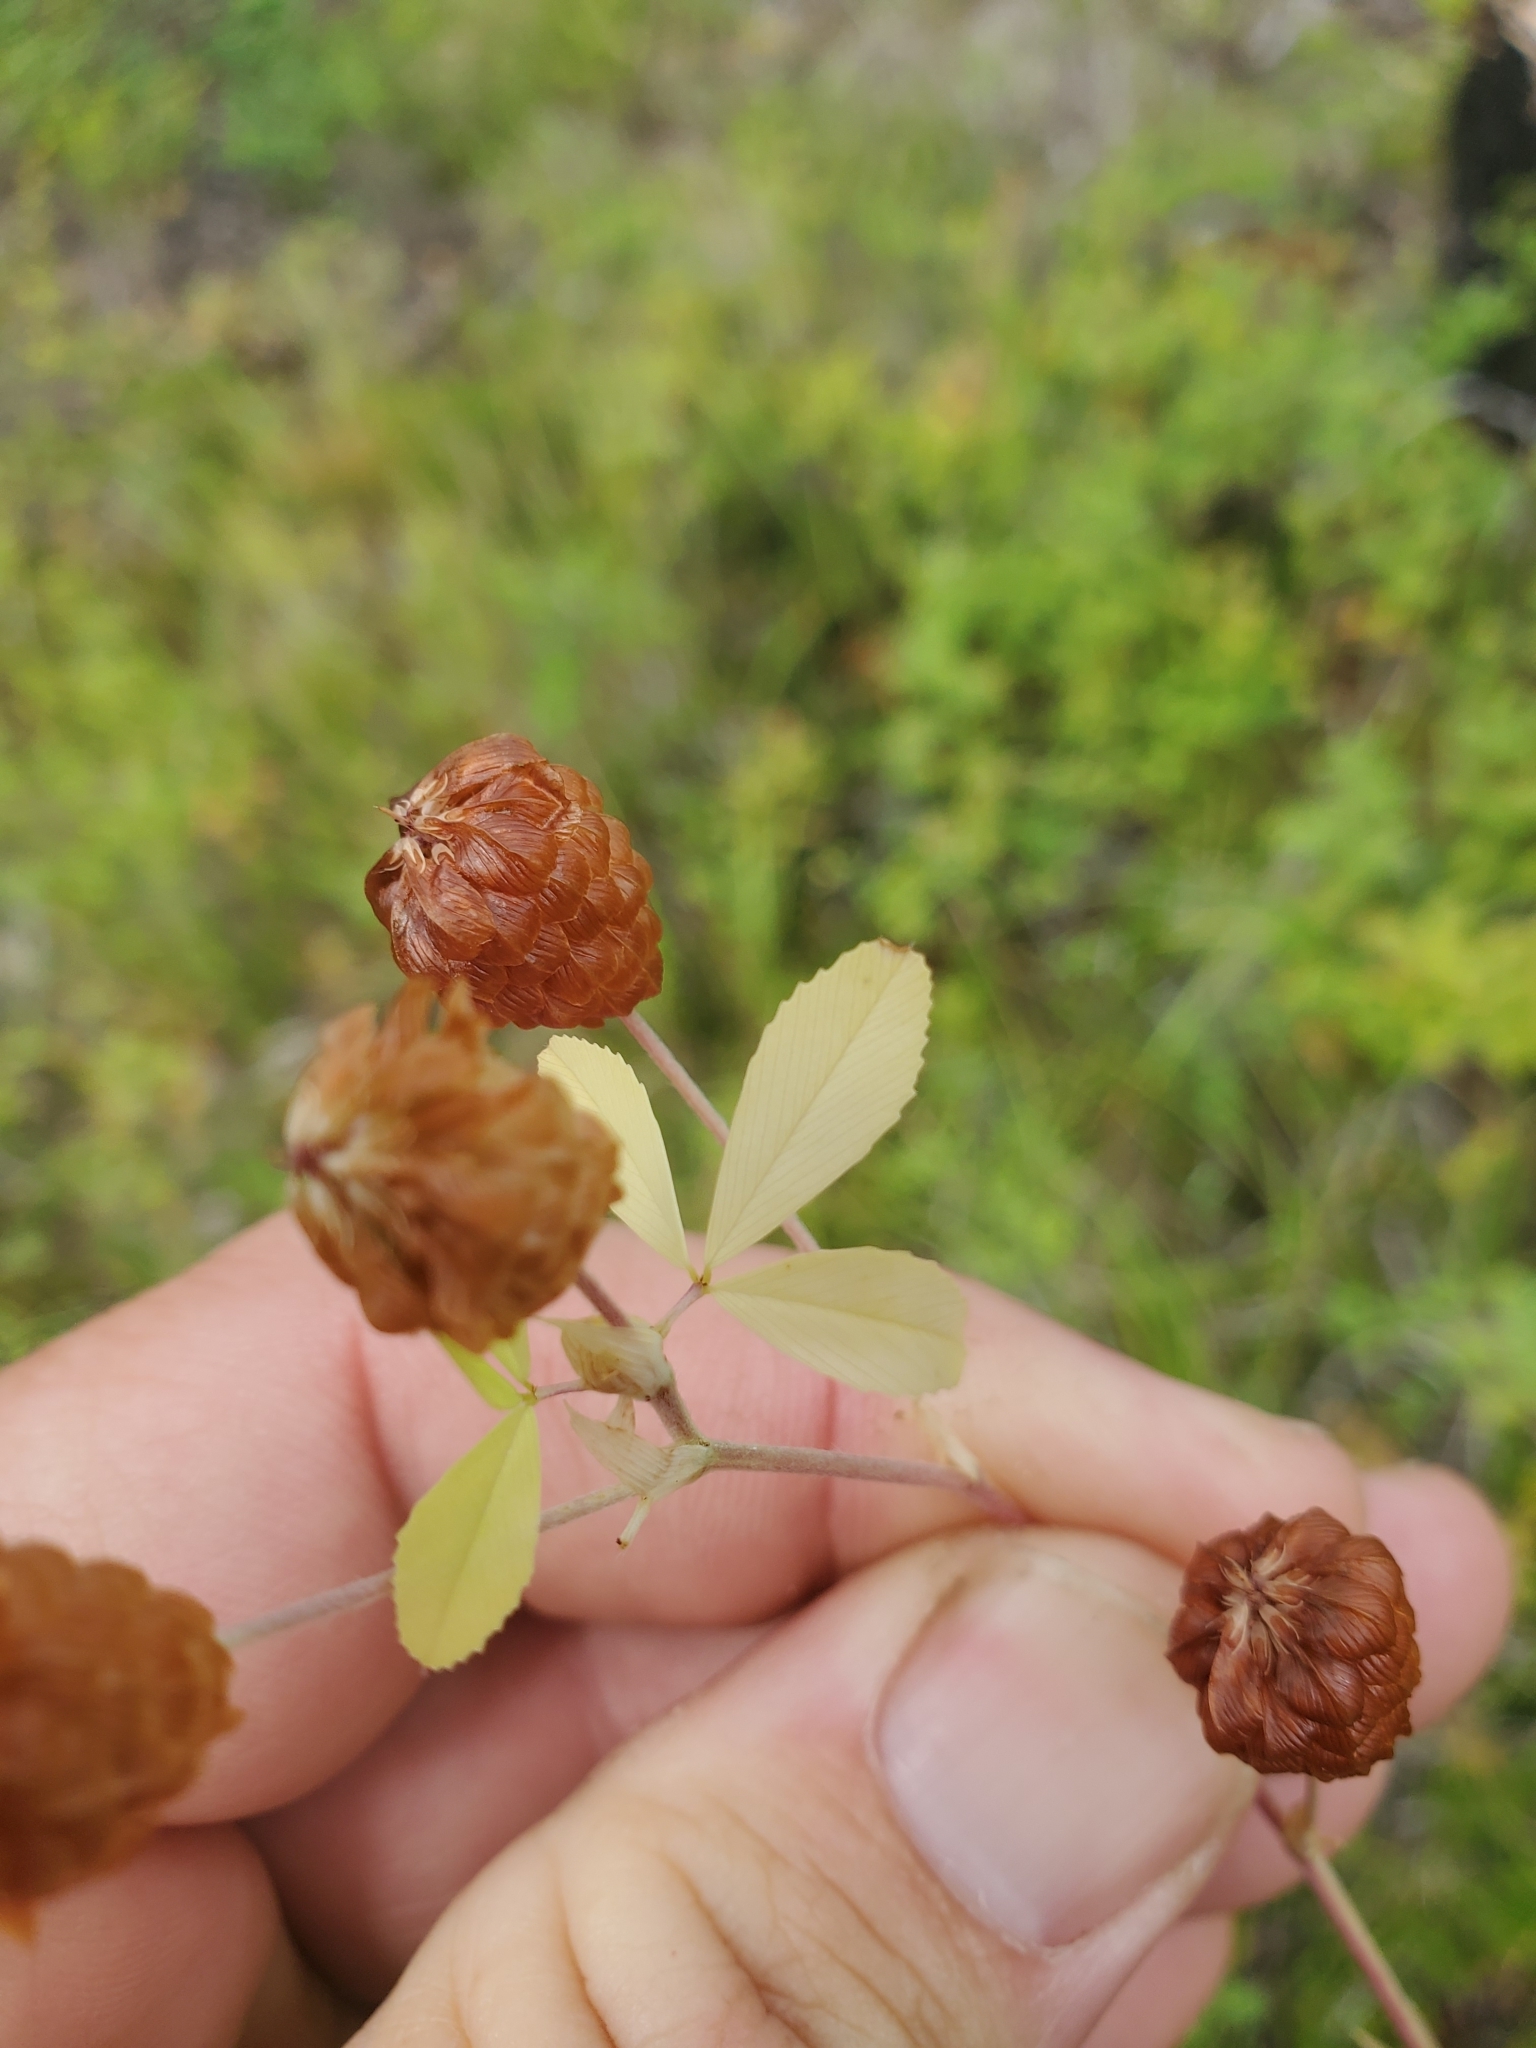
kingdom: Plantae
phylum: Tracheophyta
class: Magnoliopsida
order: Fabales
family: Fabaceae
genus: Trifolium
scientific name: Trifolium aureum
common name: Golden clover
